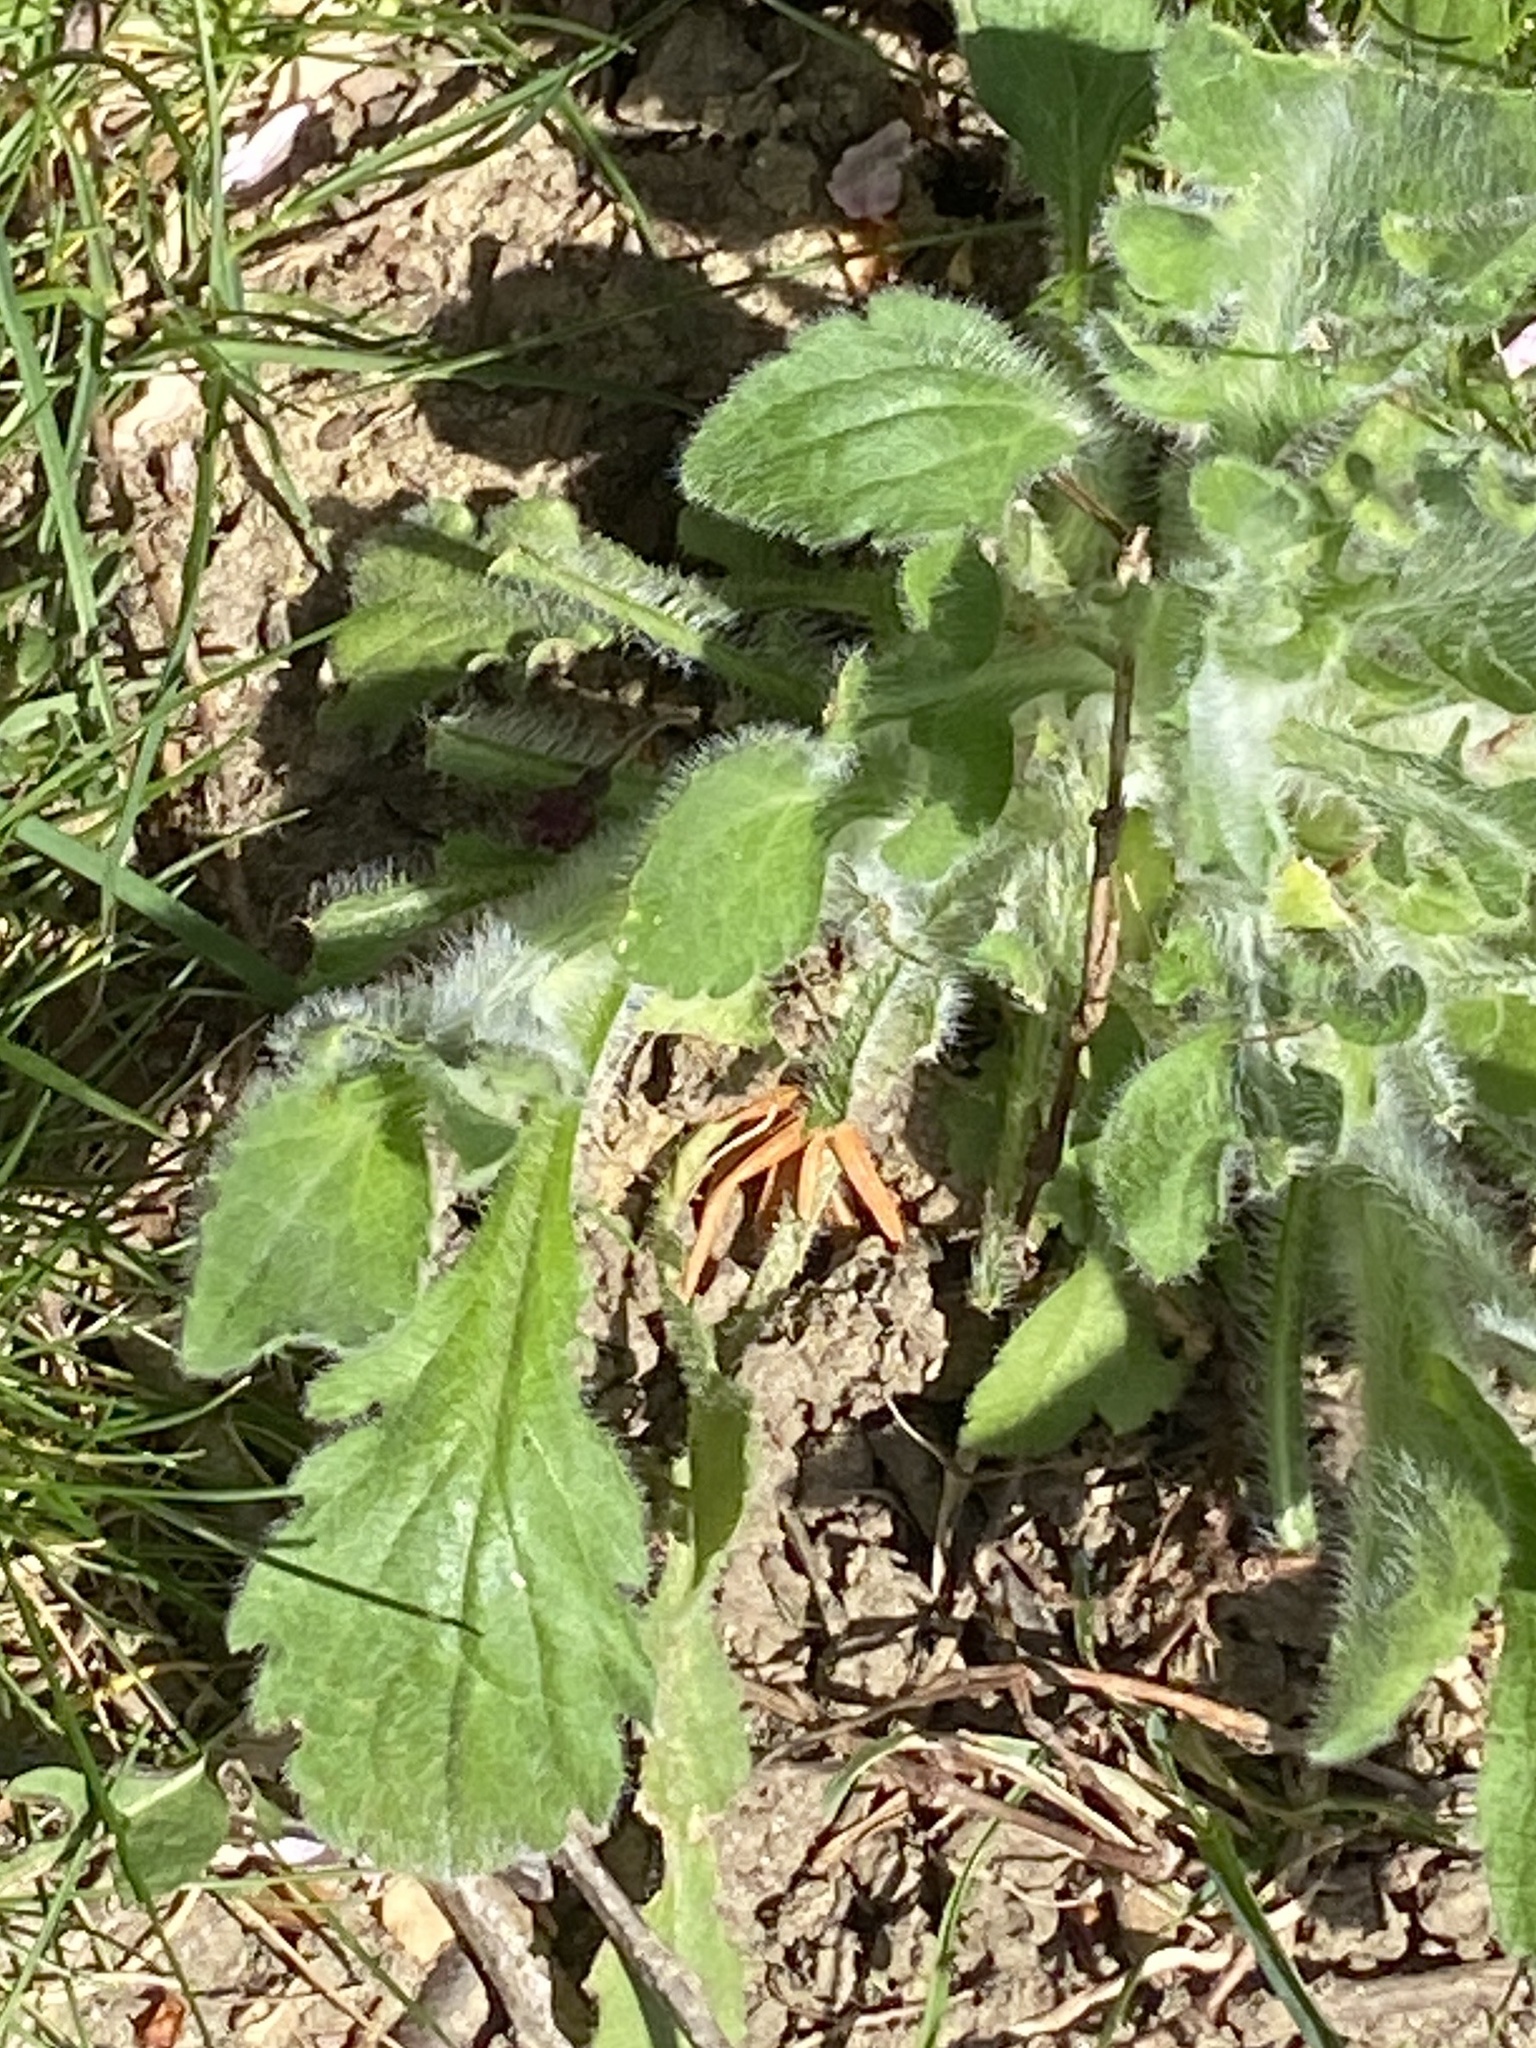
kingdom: Plantae
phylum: Tracheophyta
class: Magnoliopsida
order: Asterales
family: Asteraceae
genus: Erigeron
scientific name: Erigeron annuus
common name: Tall fleabane
